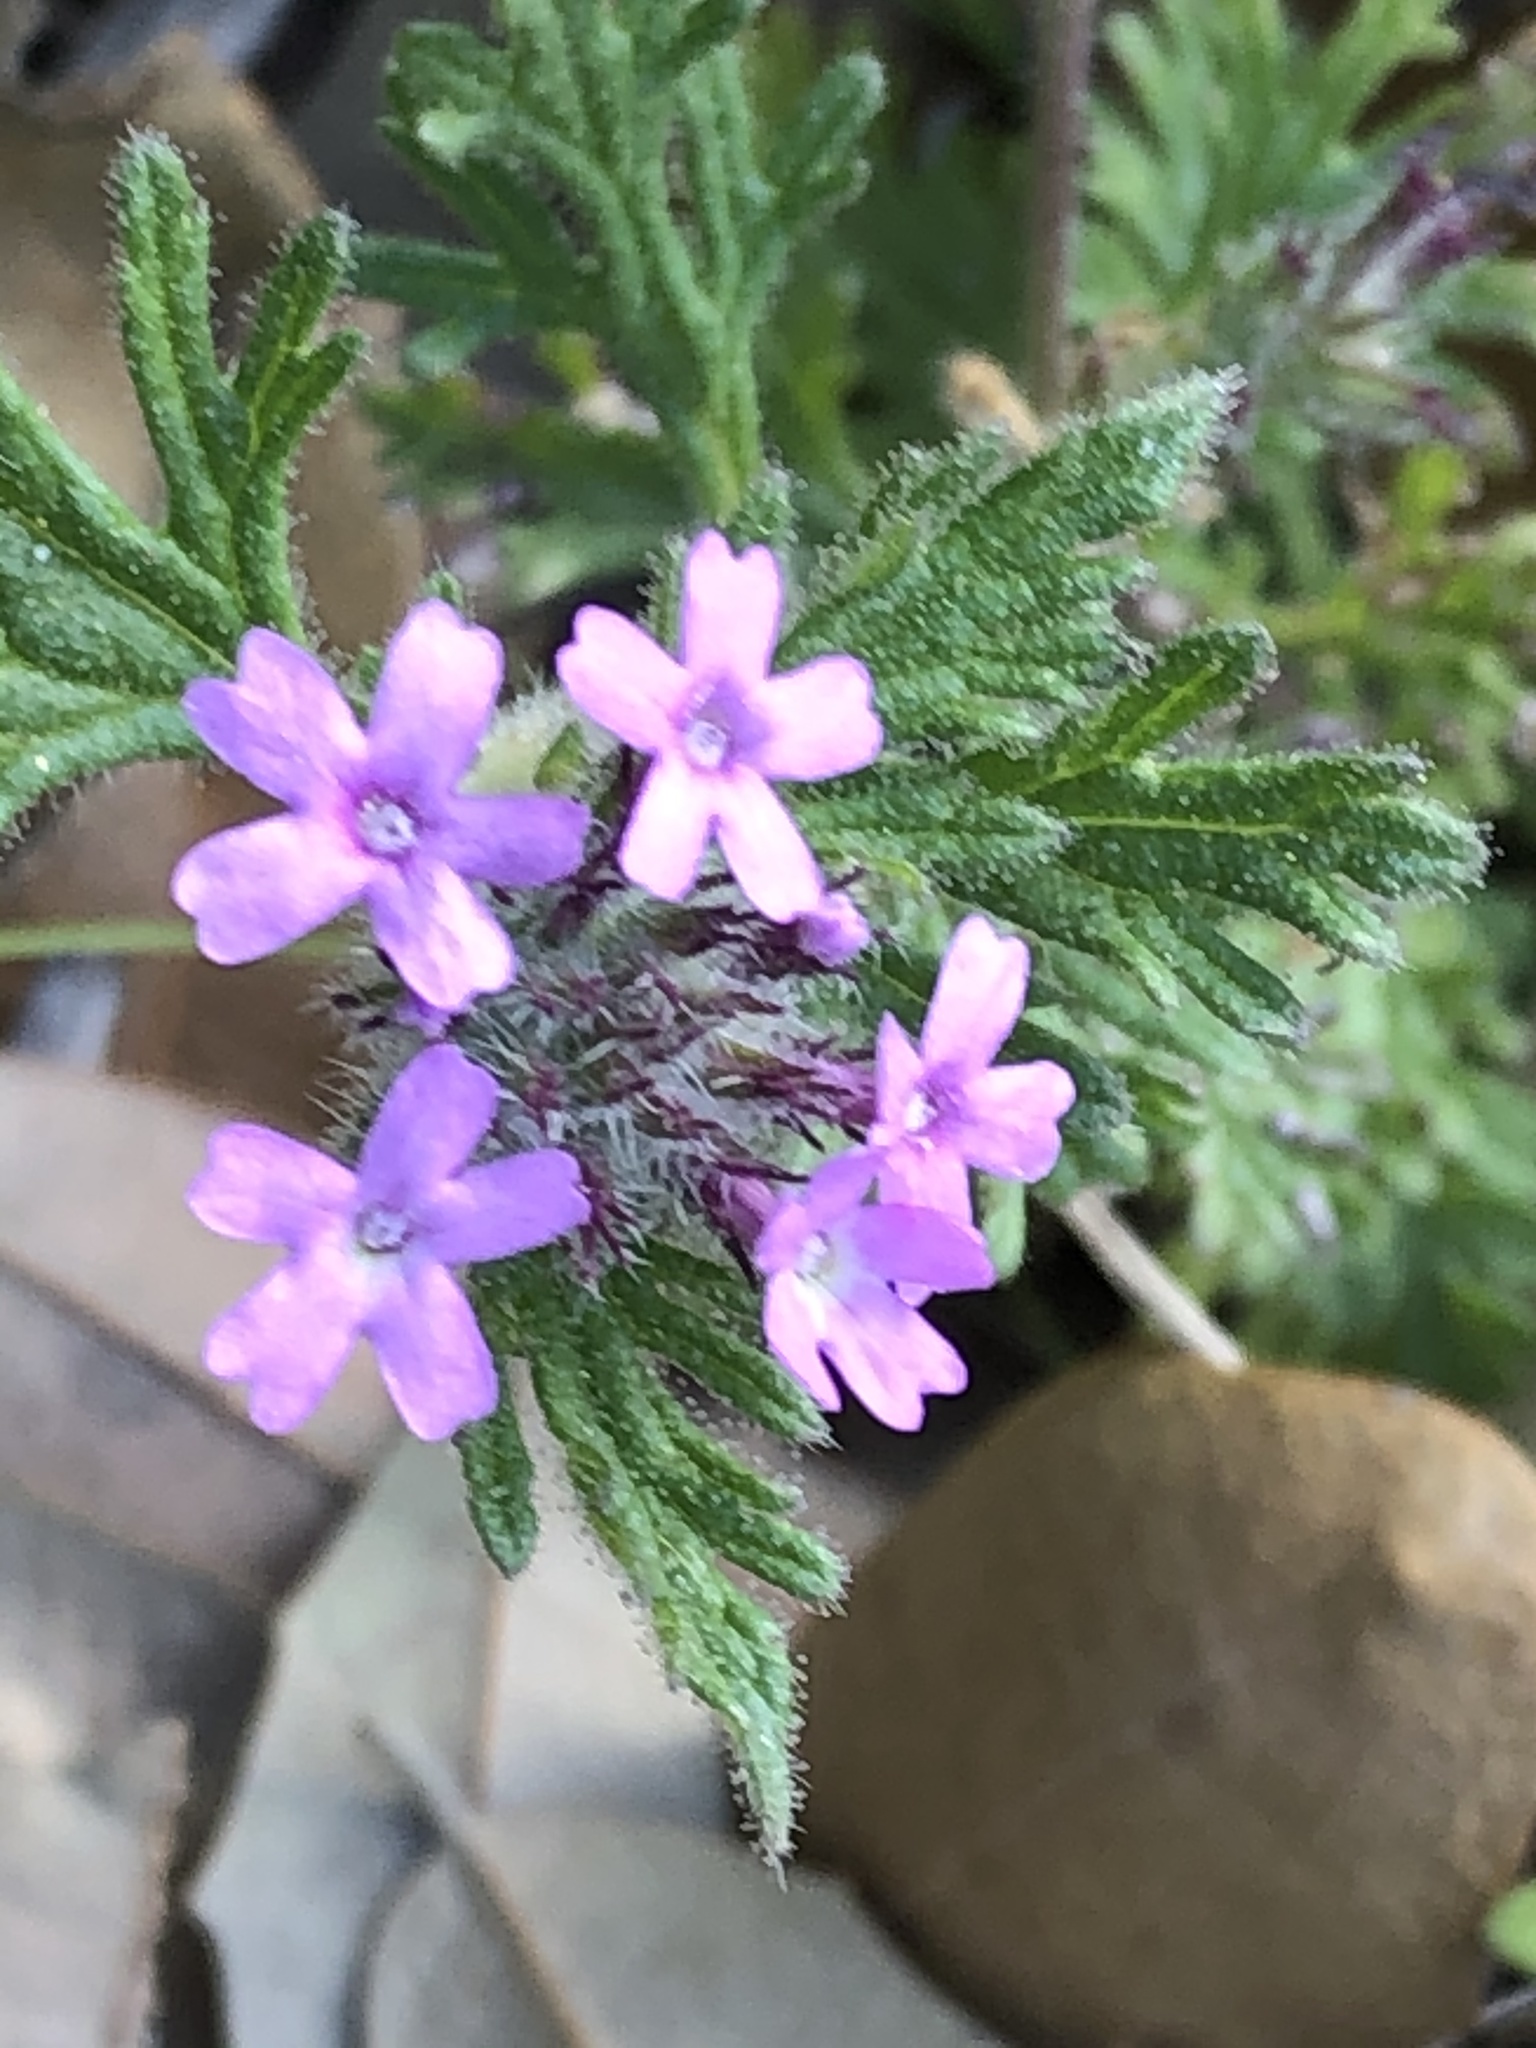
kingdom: Plantae
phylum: Tracheophyta
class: Magnoliopsida
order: Lamiales
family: Verbenaceae
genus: Verbena
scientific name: Verbena pumila
